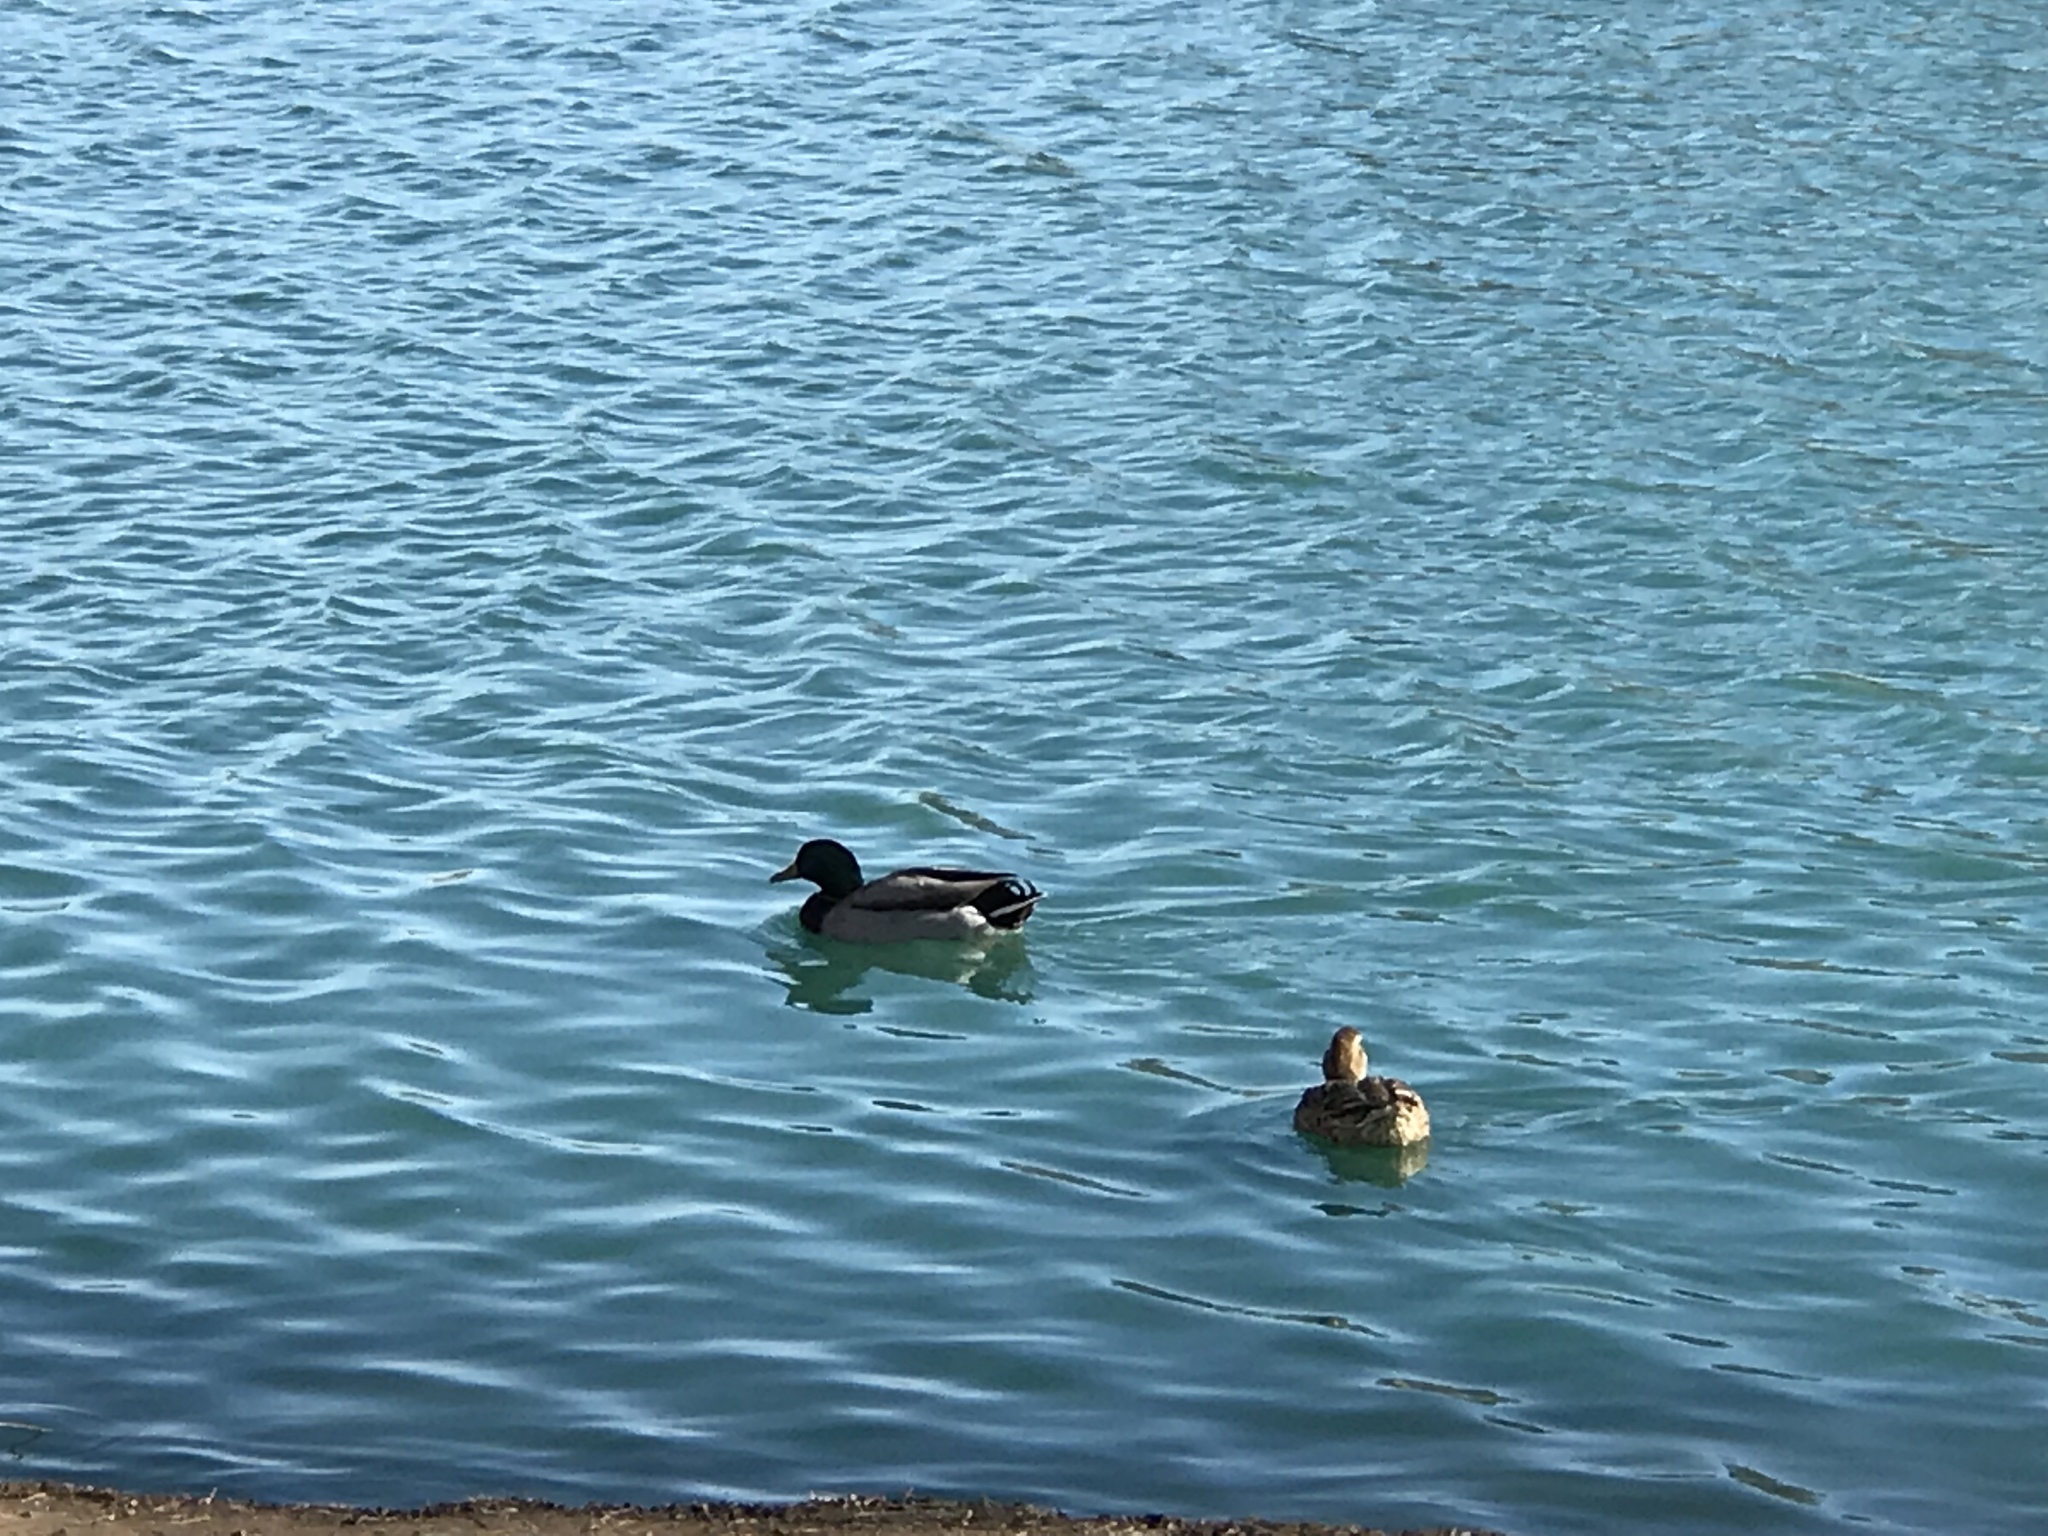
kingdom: Animalia
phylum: Chordata
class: Aves
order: Anseriformes
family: Anatidae
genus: Anas
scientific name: Anas platyrhynchos
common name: Mallard
